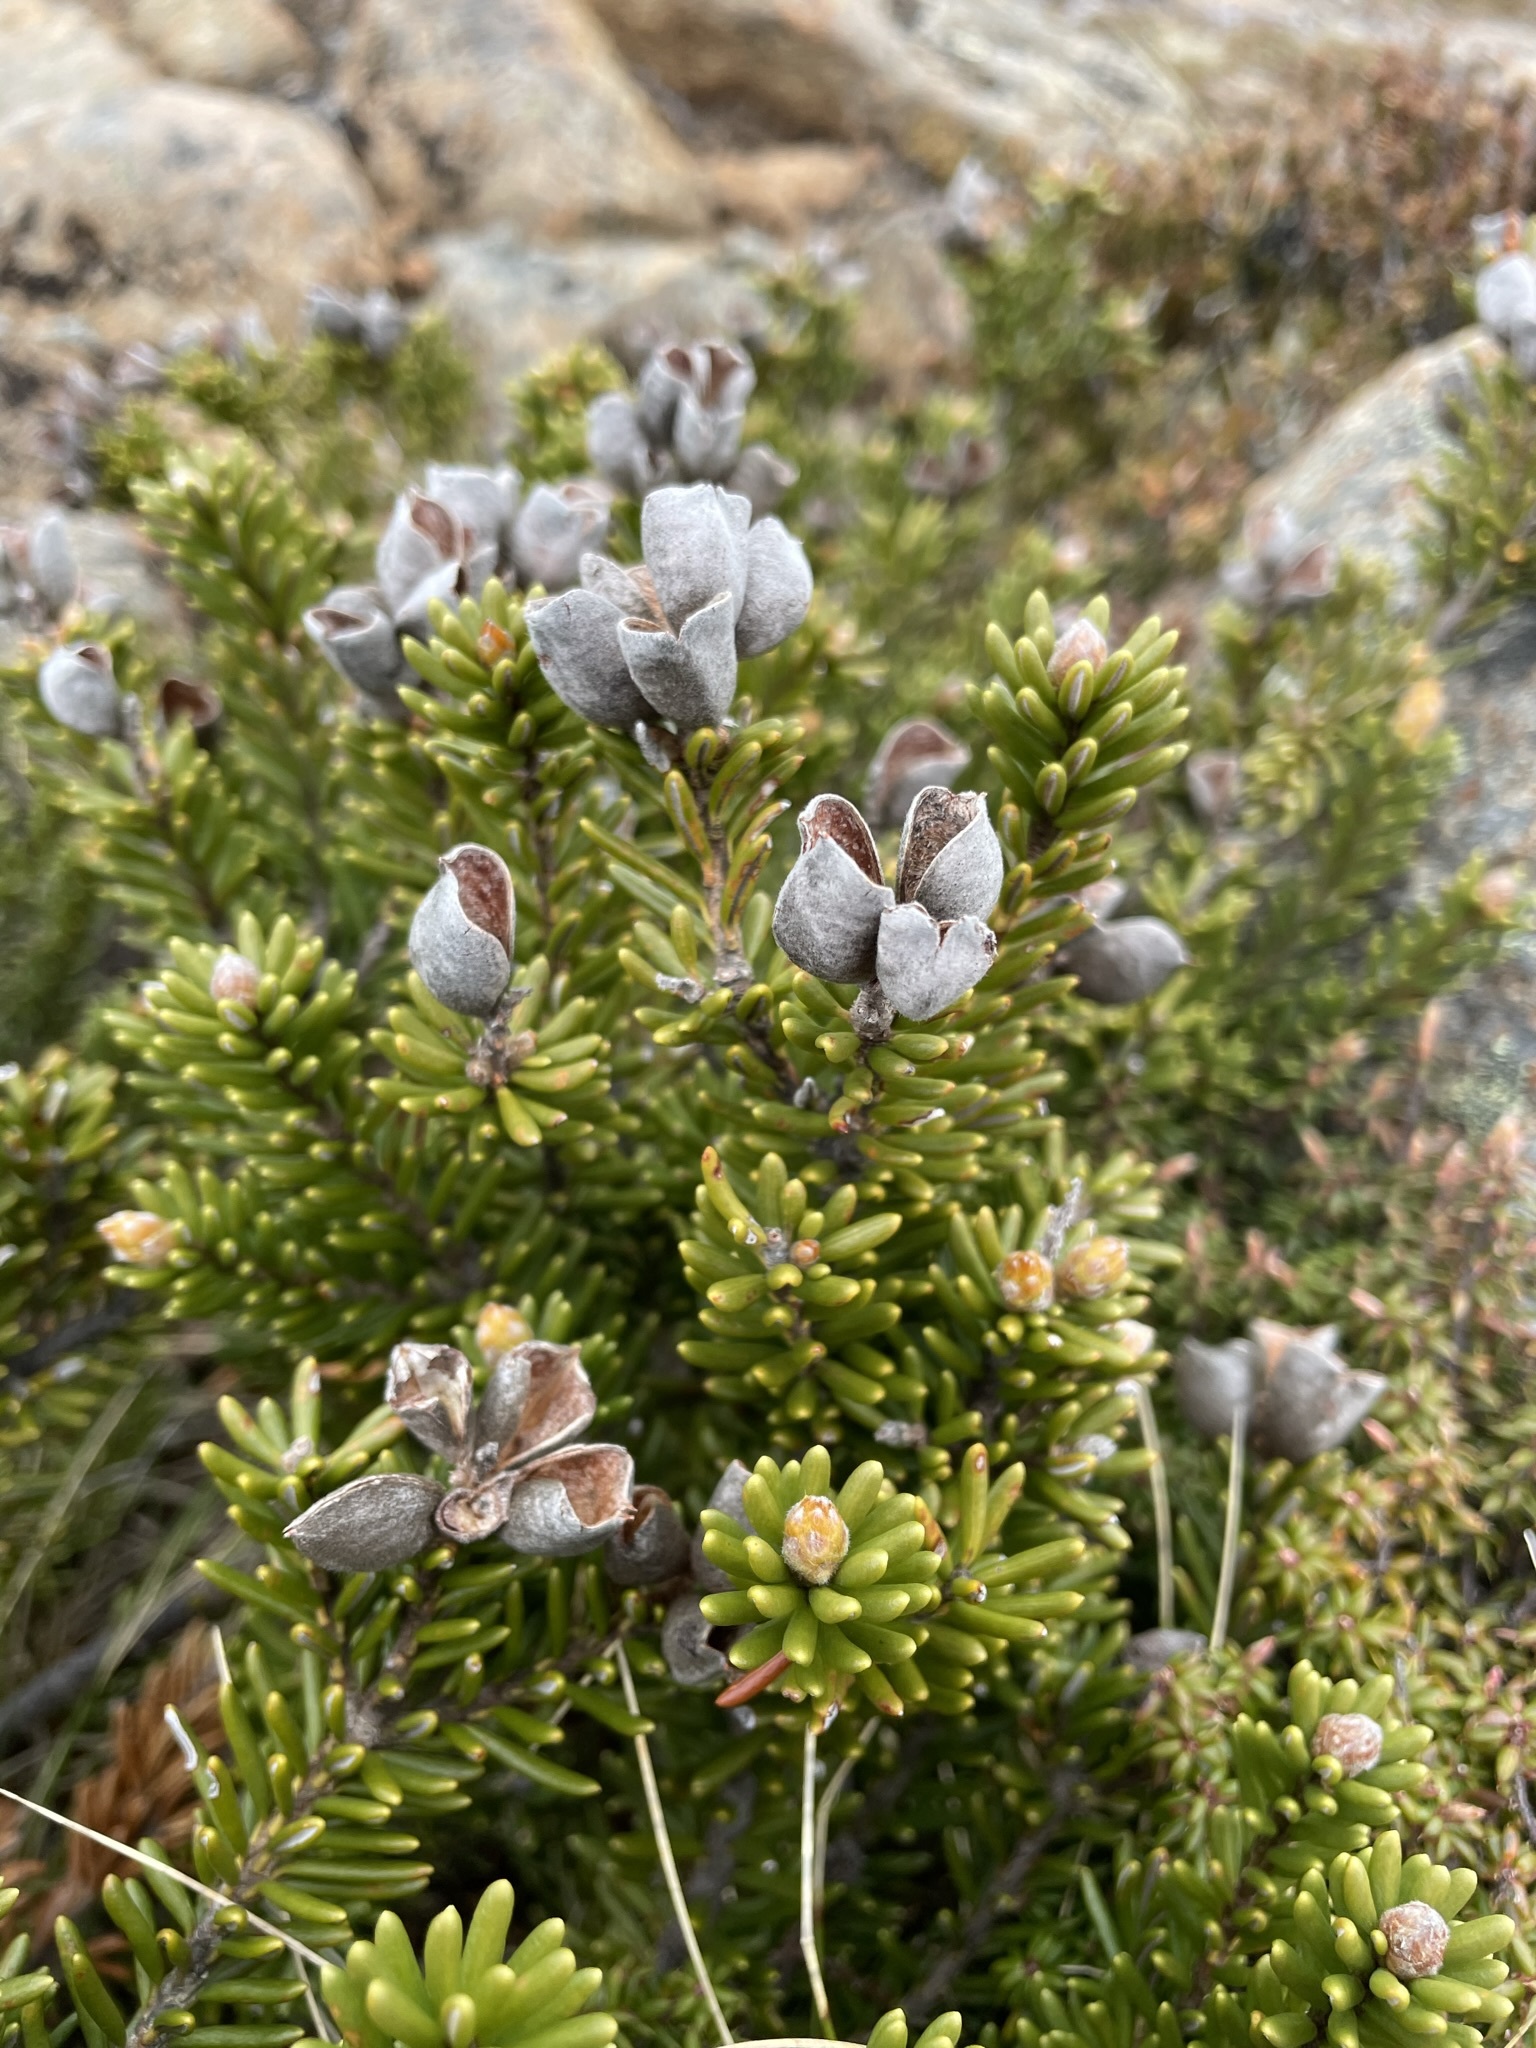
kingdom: Plantae
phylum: Tracheophyta
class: Magnoliopsida
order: Proteales
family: Proteaceae
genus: Orites
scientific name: Orites revolutus
